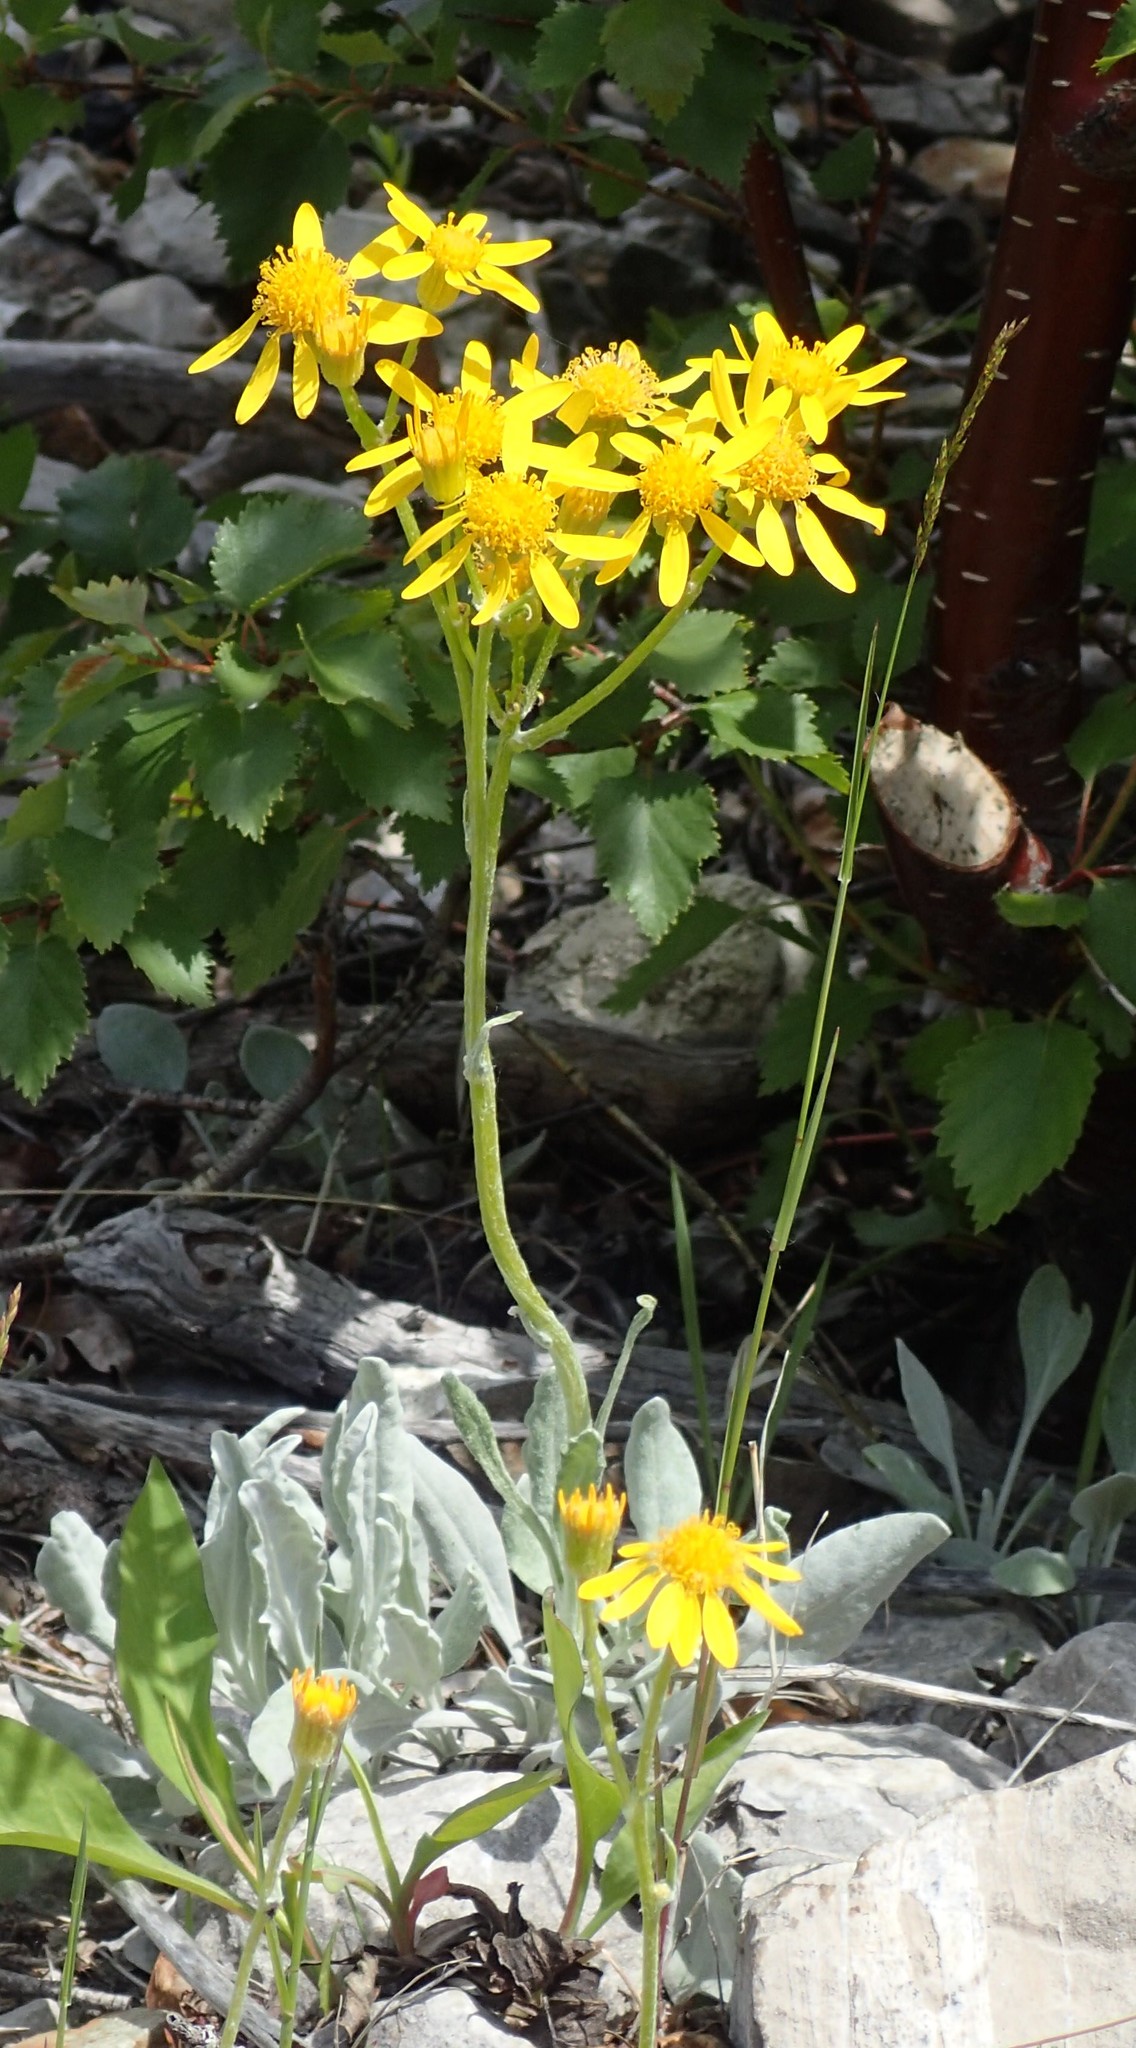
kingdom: Plantae
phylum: Tracheophyta
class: Magnoliopsida
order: Asterales
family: Asteraceae
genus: Packera
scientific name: Packera cana
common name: Woolly groundsel
